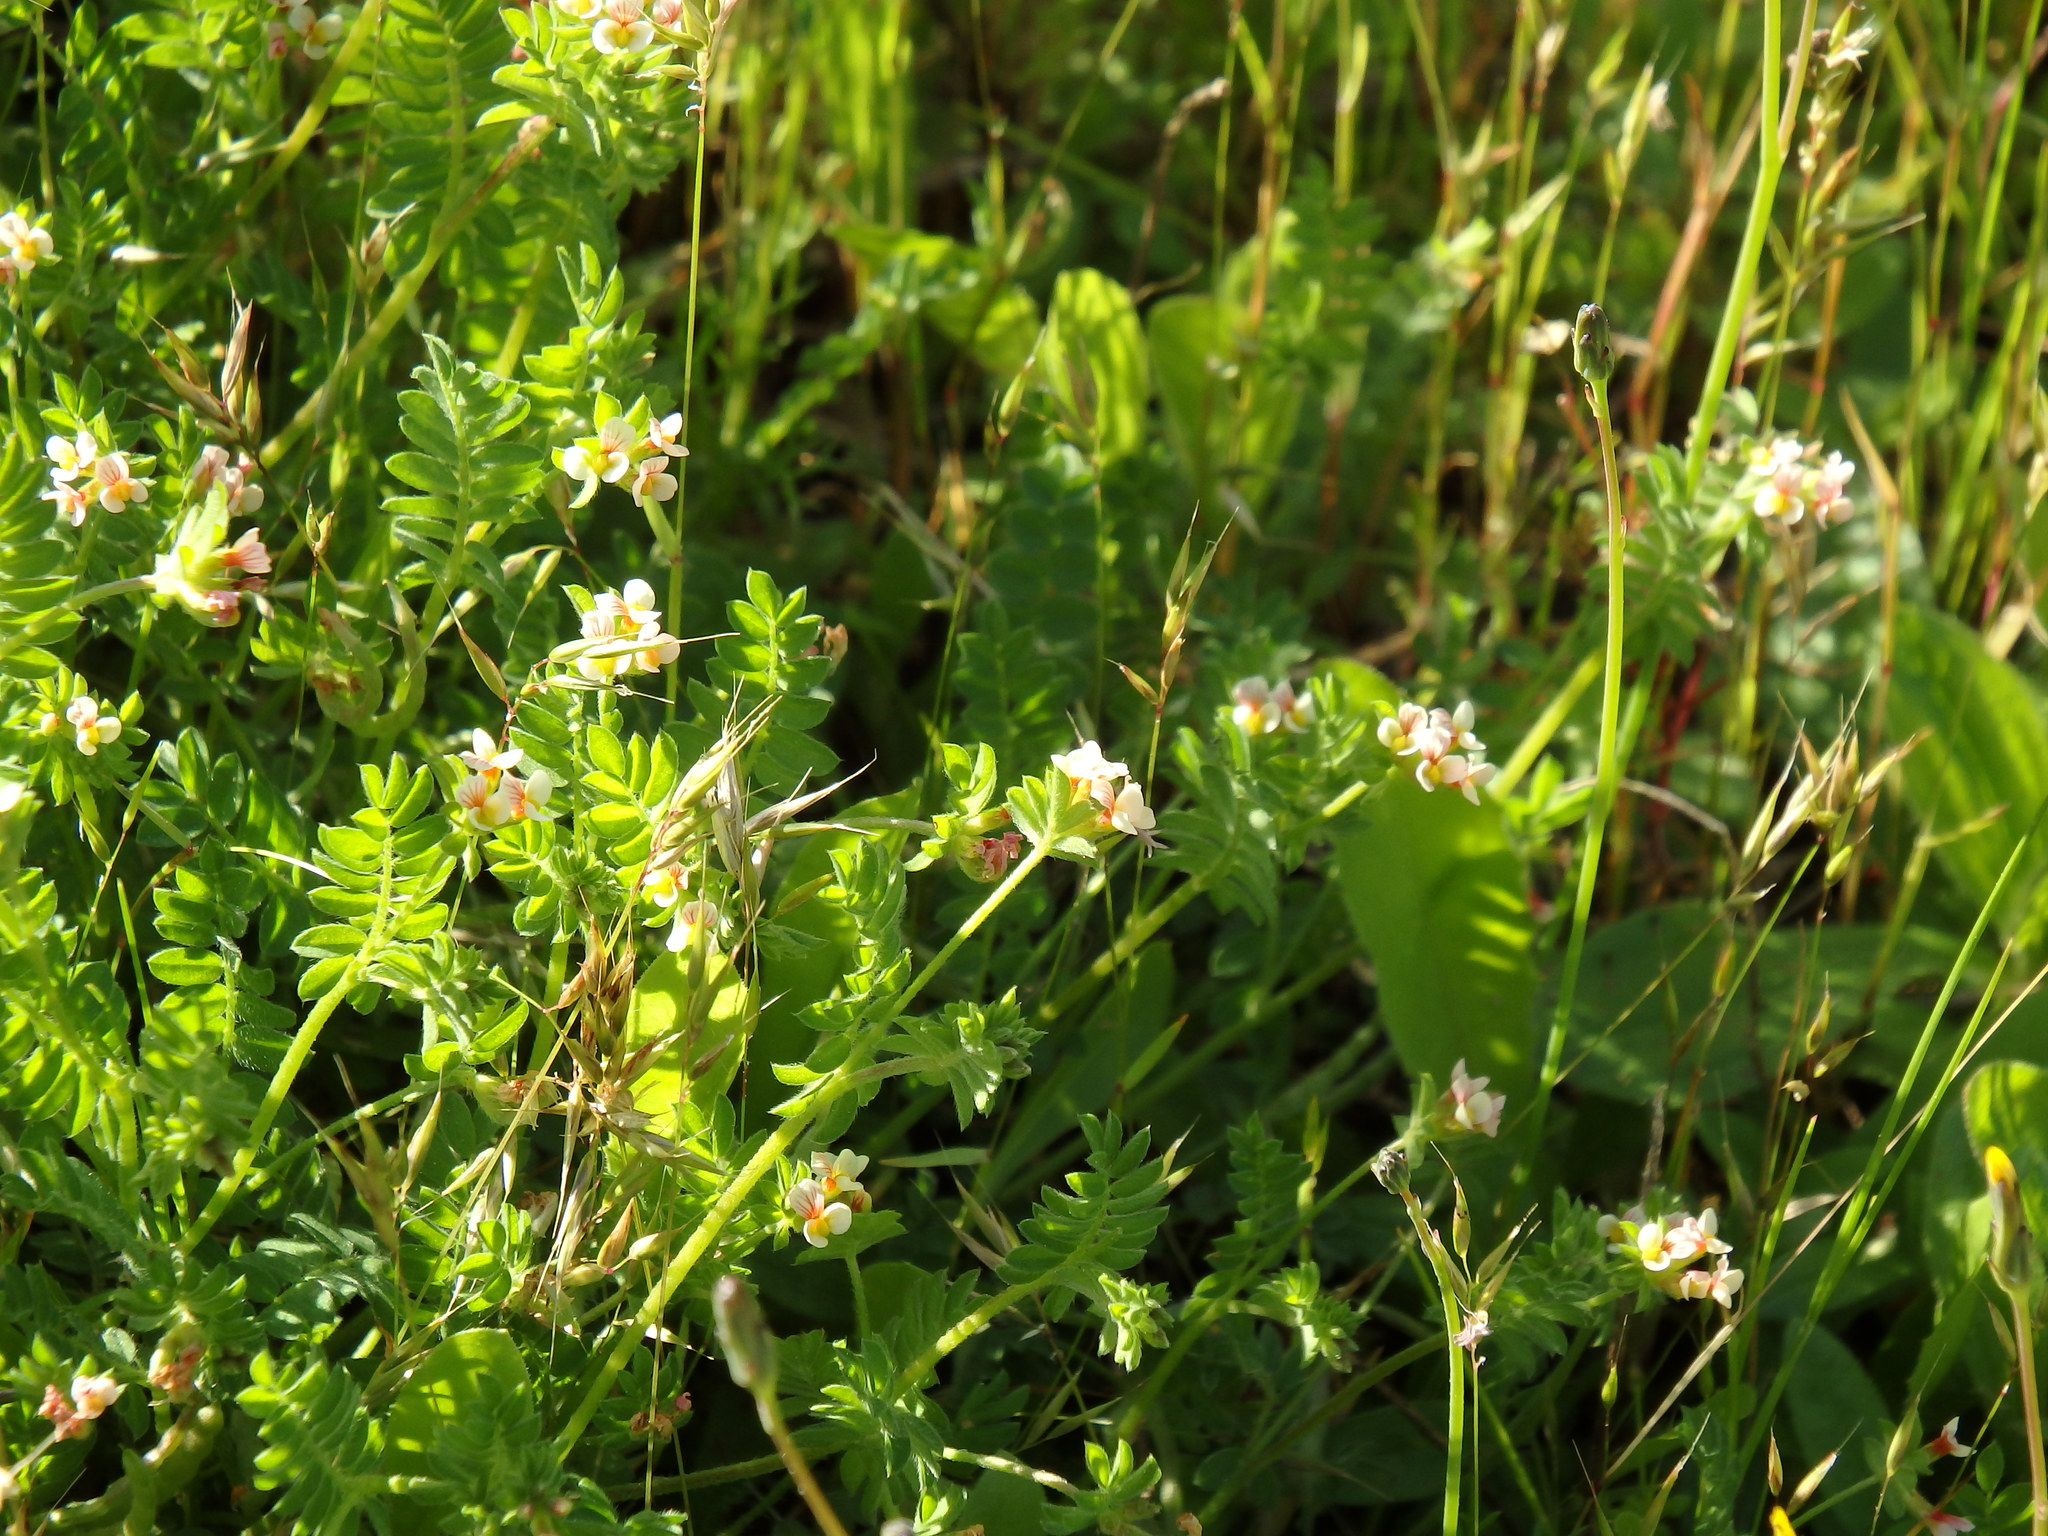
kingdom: Plantae
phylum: Tracheophyta
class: Magnoliopsida
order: Fabales
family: Fabaceae
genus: Ornithopus
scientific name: Ornithopus perpusillus
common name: Bird's-foot
